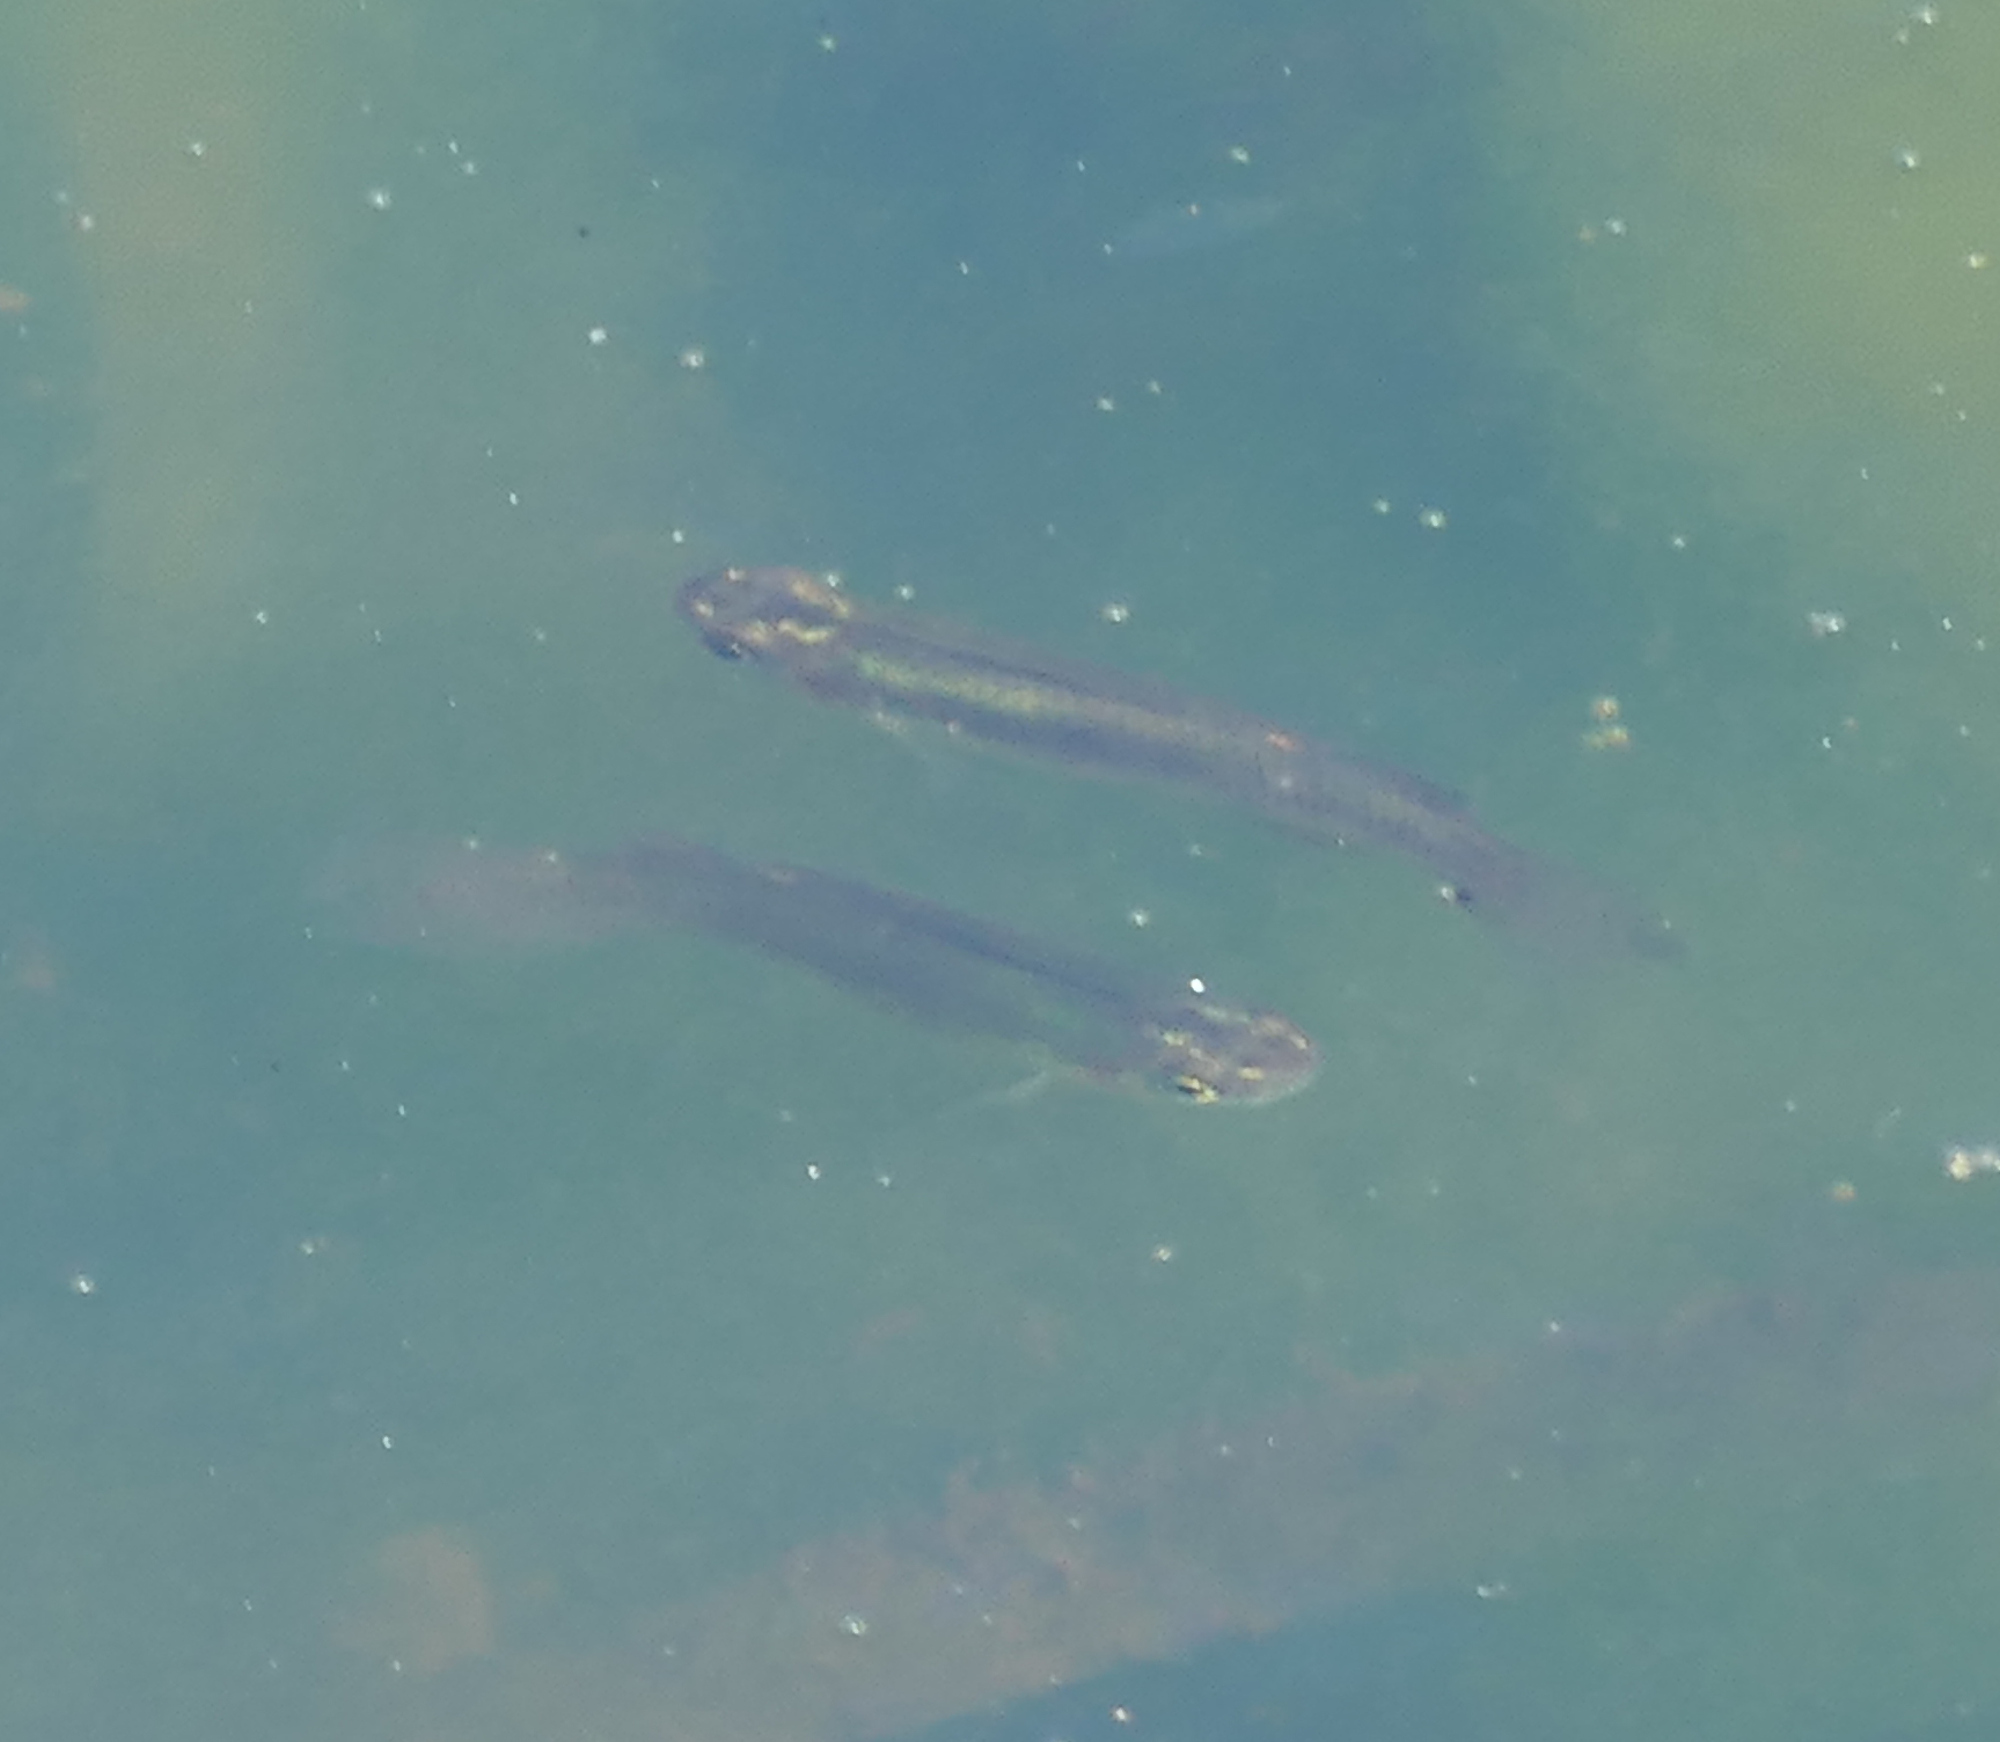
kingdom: Animalia
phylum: Chordata
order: Cyprinodontiformes
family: Poeciliidae
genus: Gambusia
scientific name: Gambusia affinis
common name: Mosquitofish
